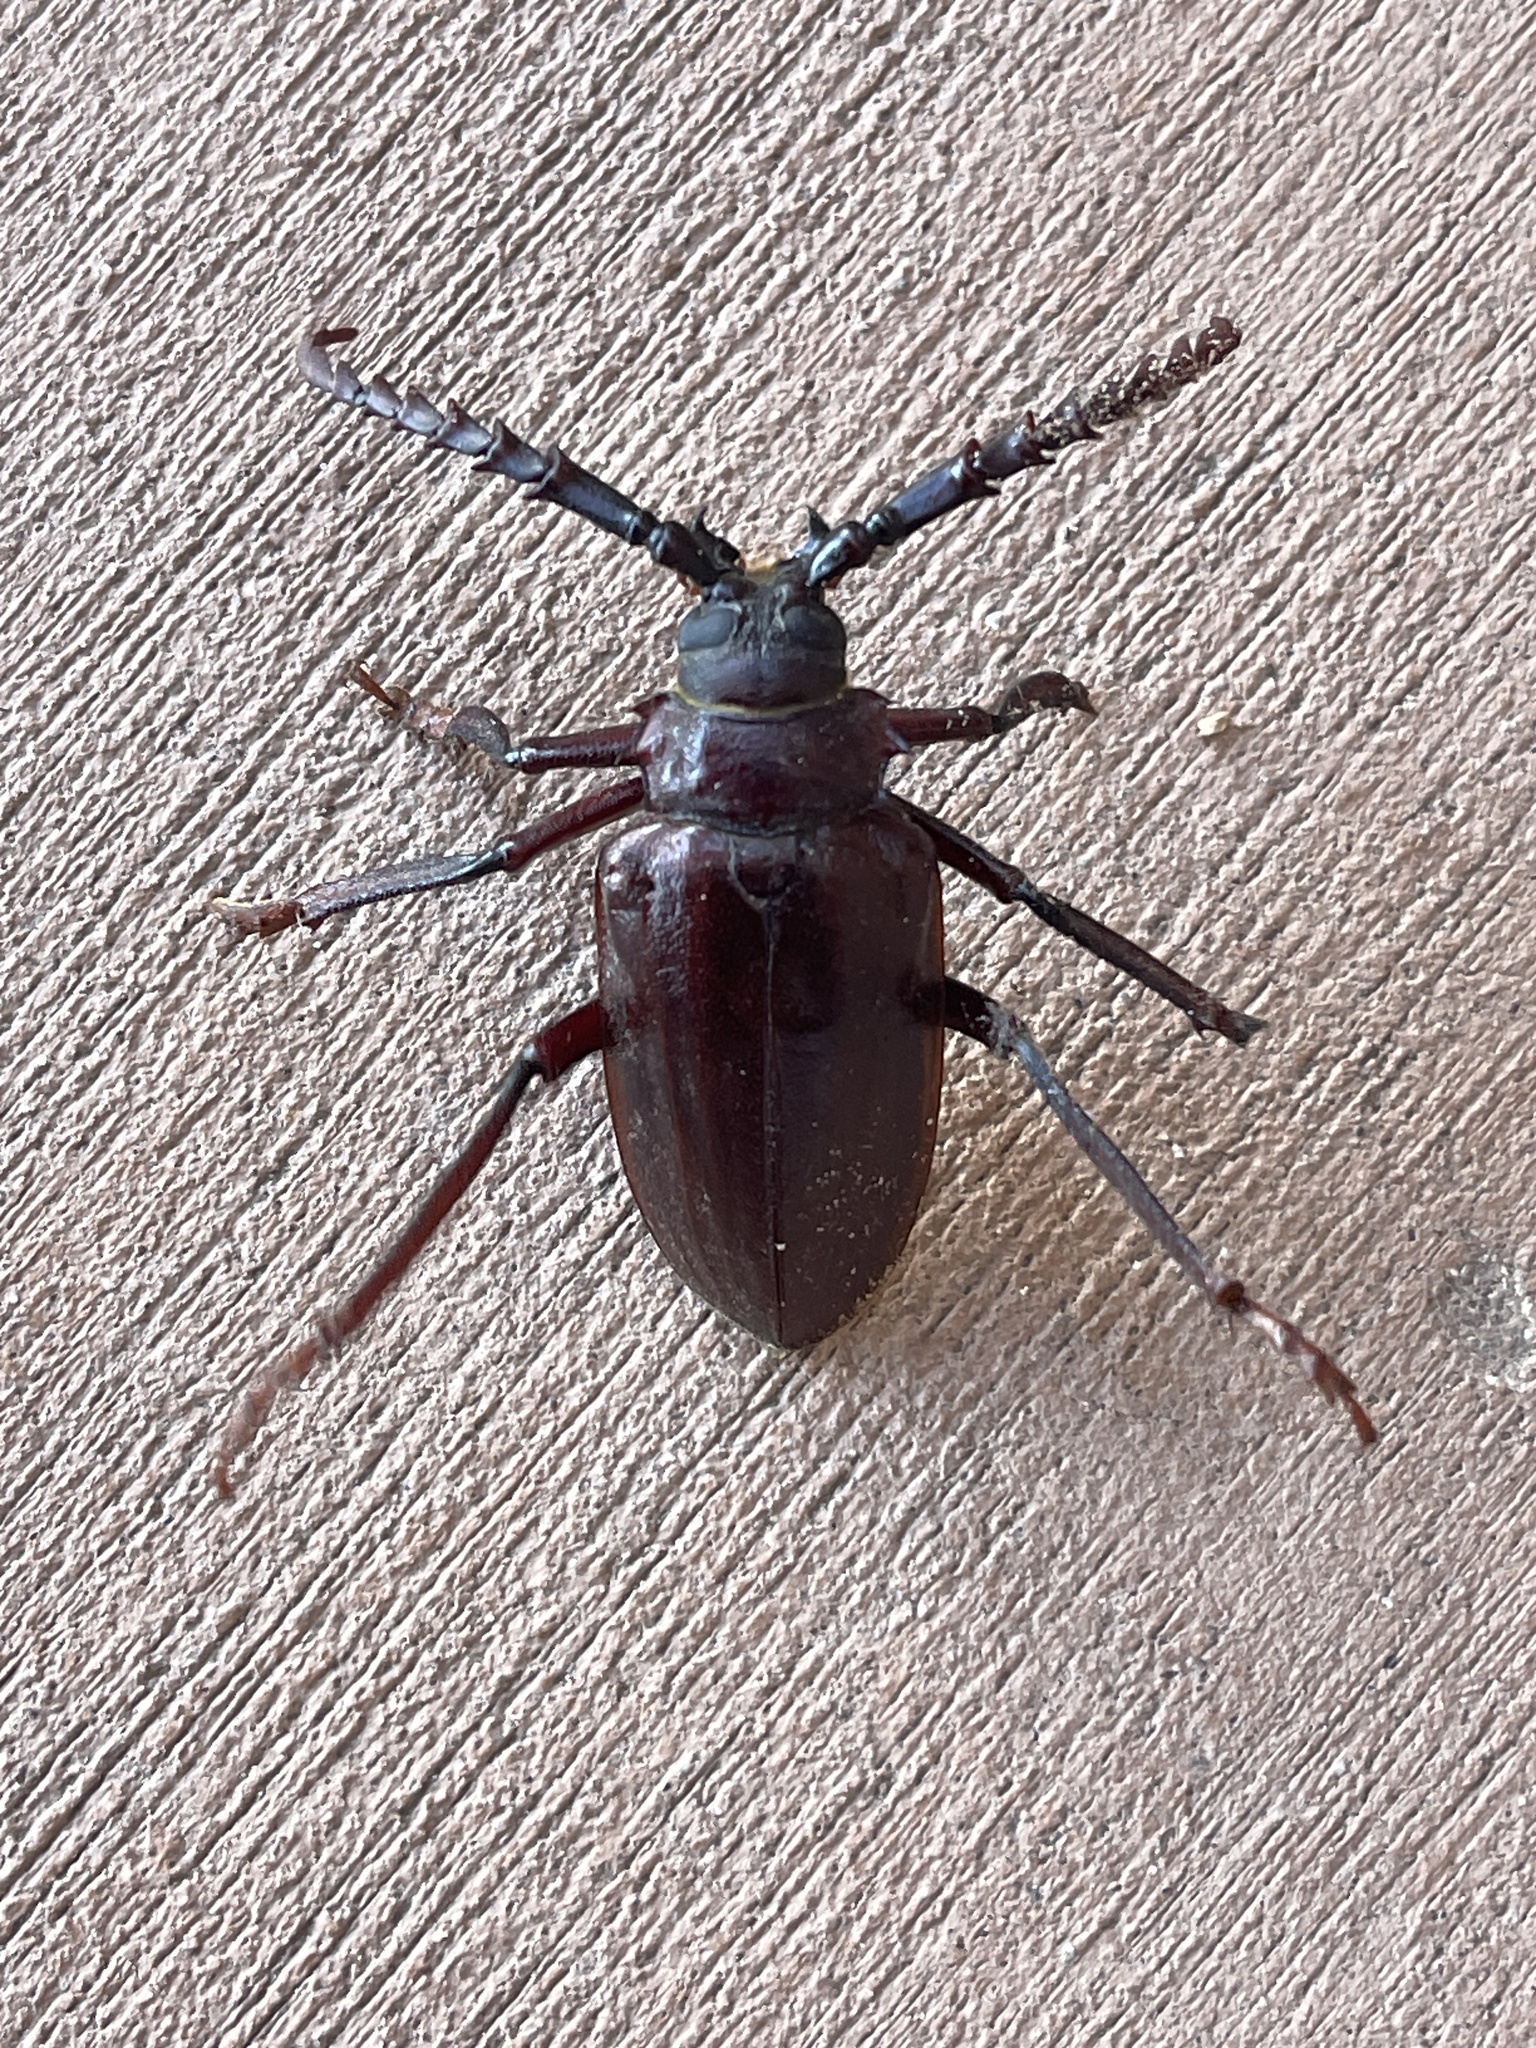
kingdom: Animalia
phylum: Arthropoda
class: Insecta
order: Coleoptera
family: Cerambycidae
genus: Prionus
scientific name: Prionus californicus
